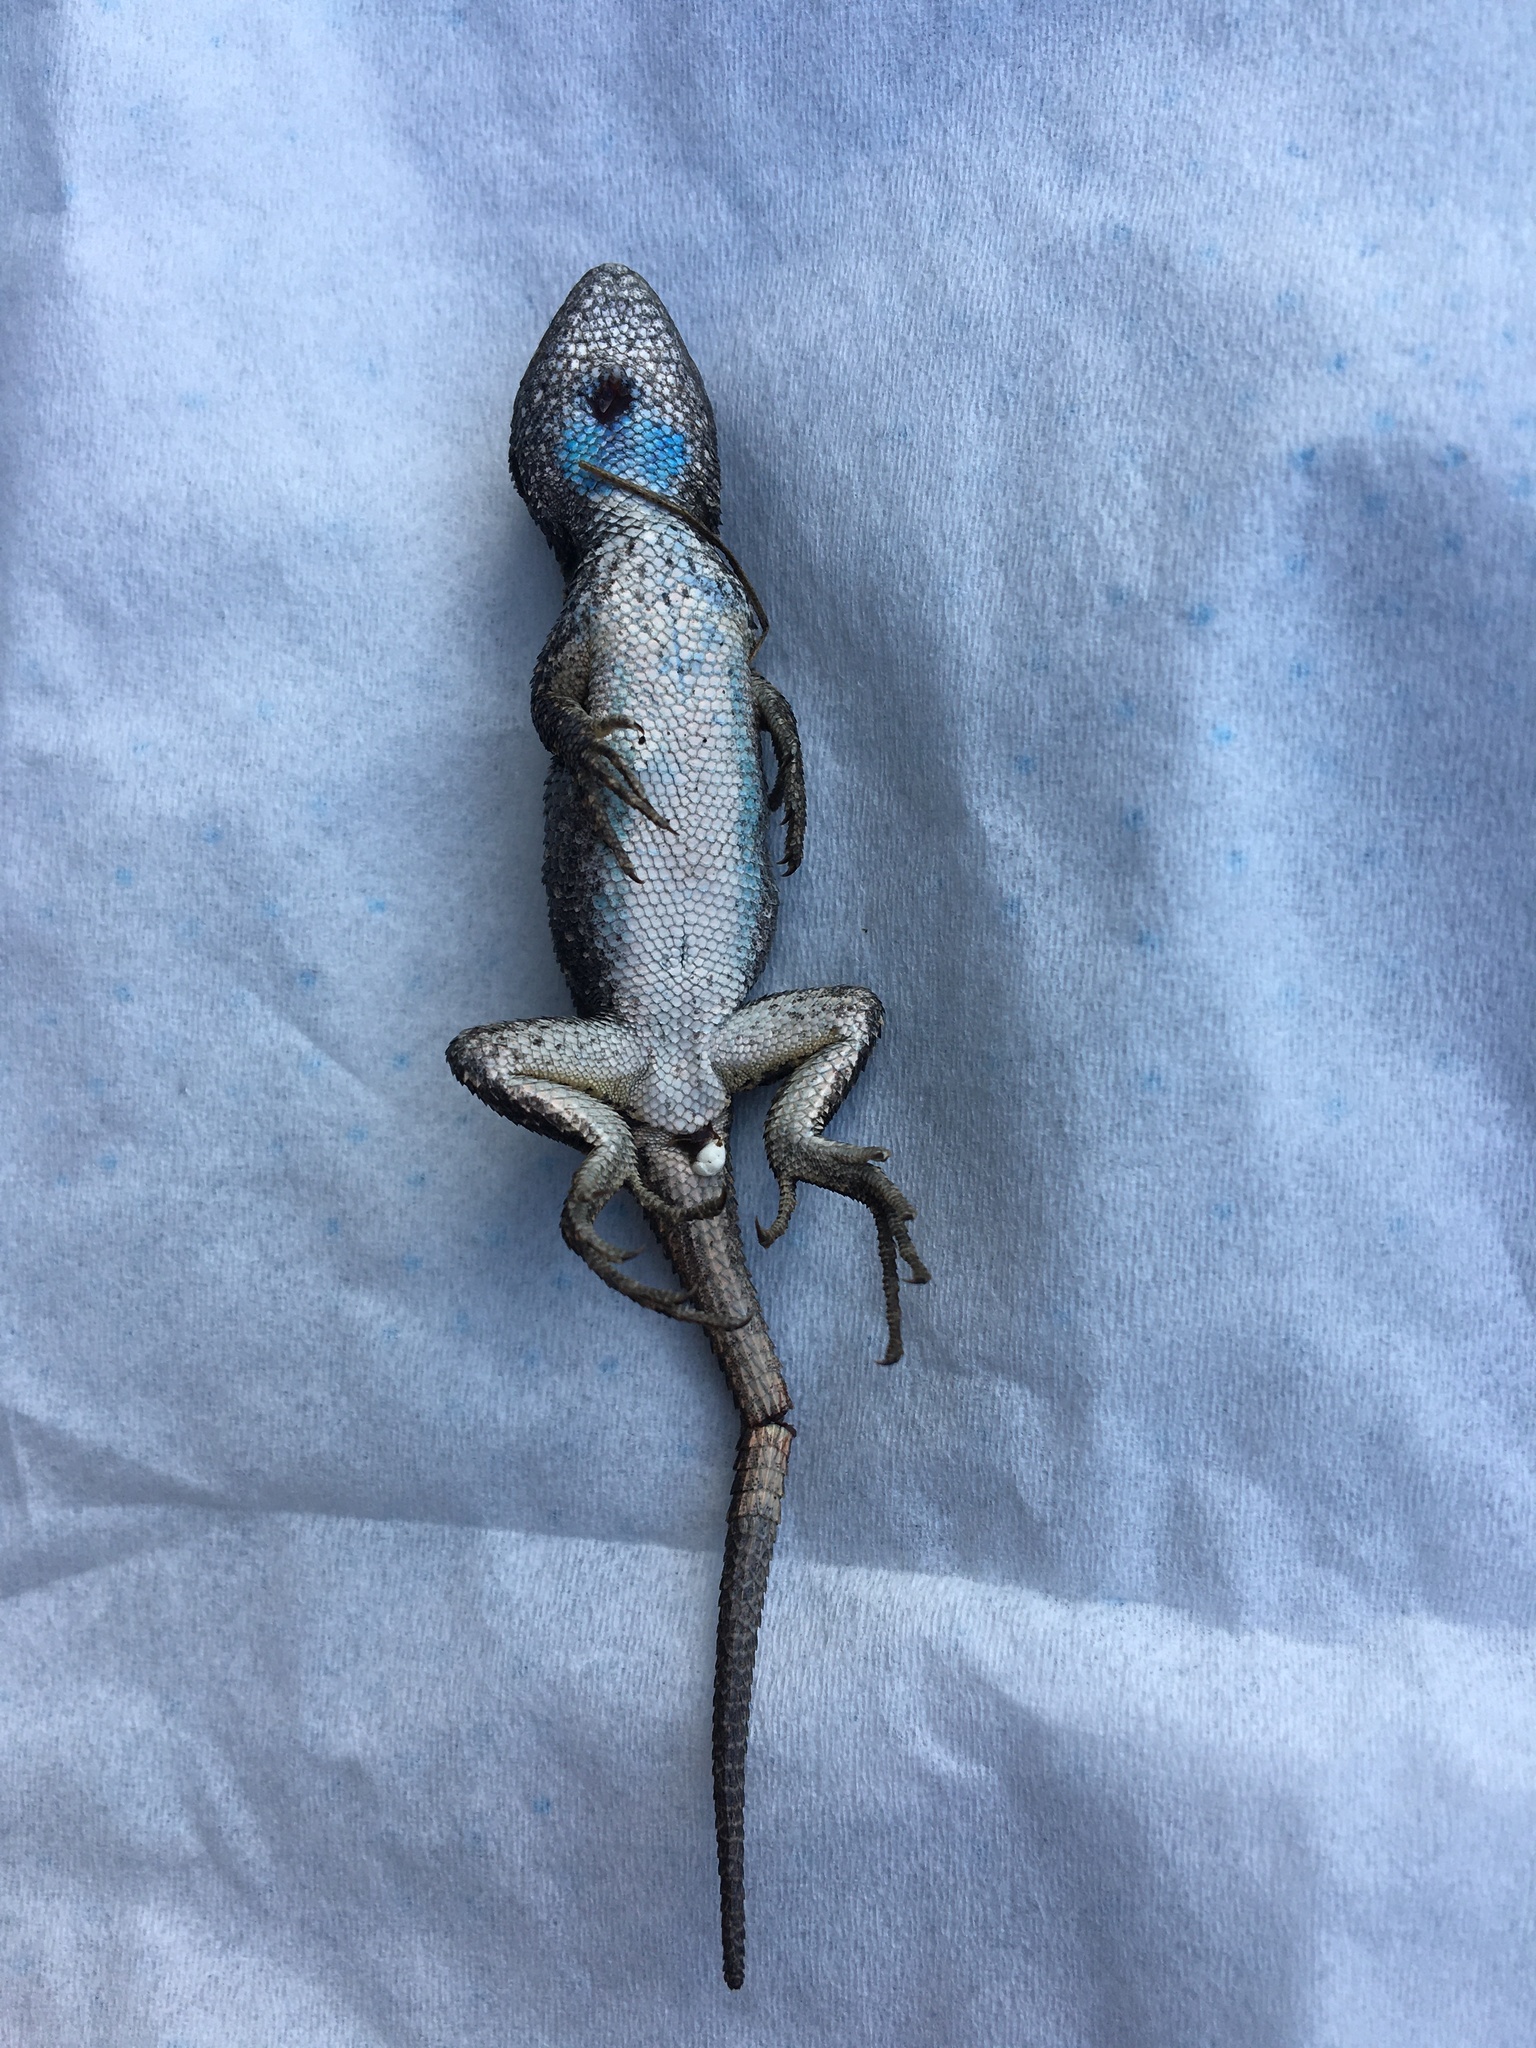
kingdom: Animalia
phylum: Chordata
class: Squamata
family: Phrynosomatidae
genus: Sceloporus
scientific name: Sceloporus occidentalis
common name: Western fence lizard
